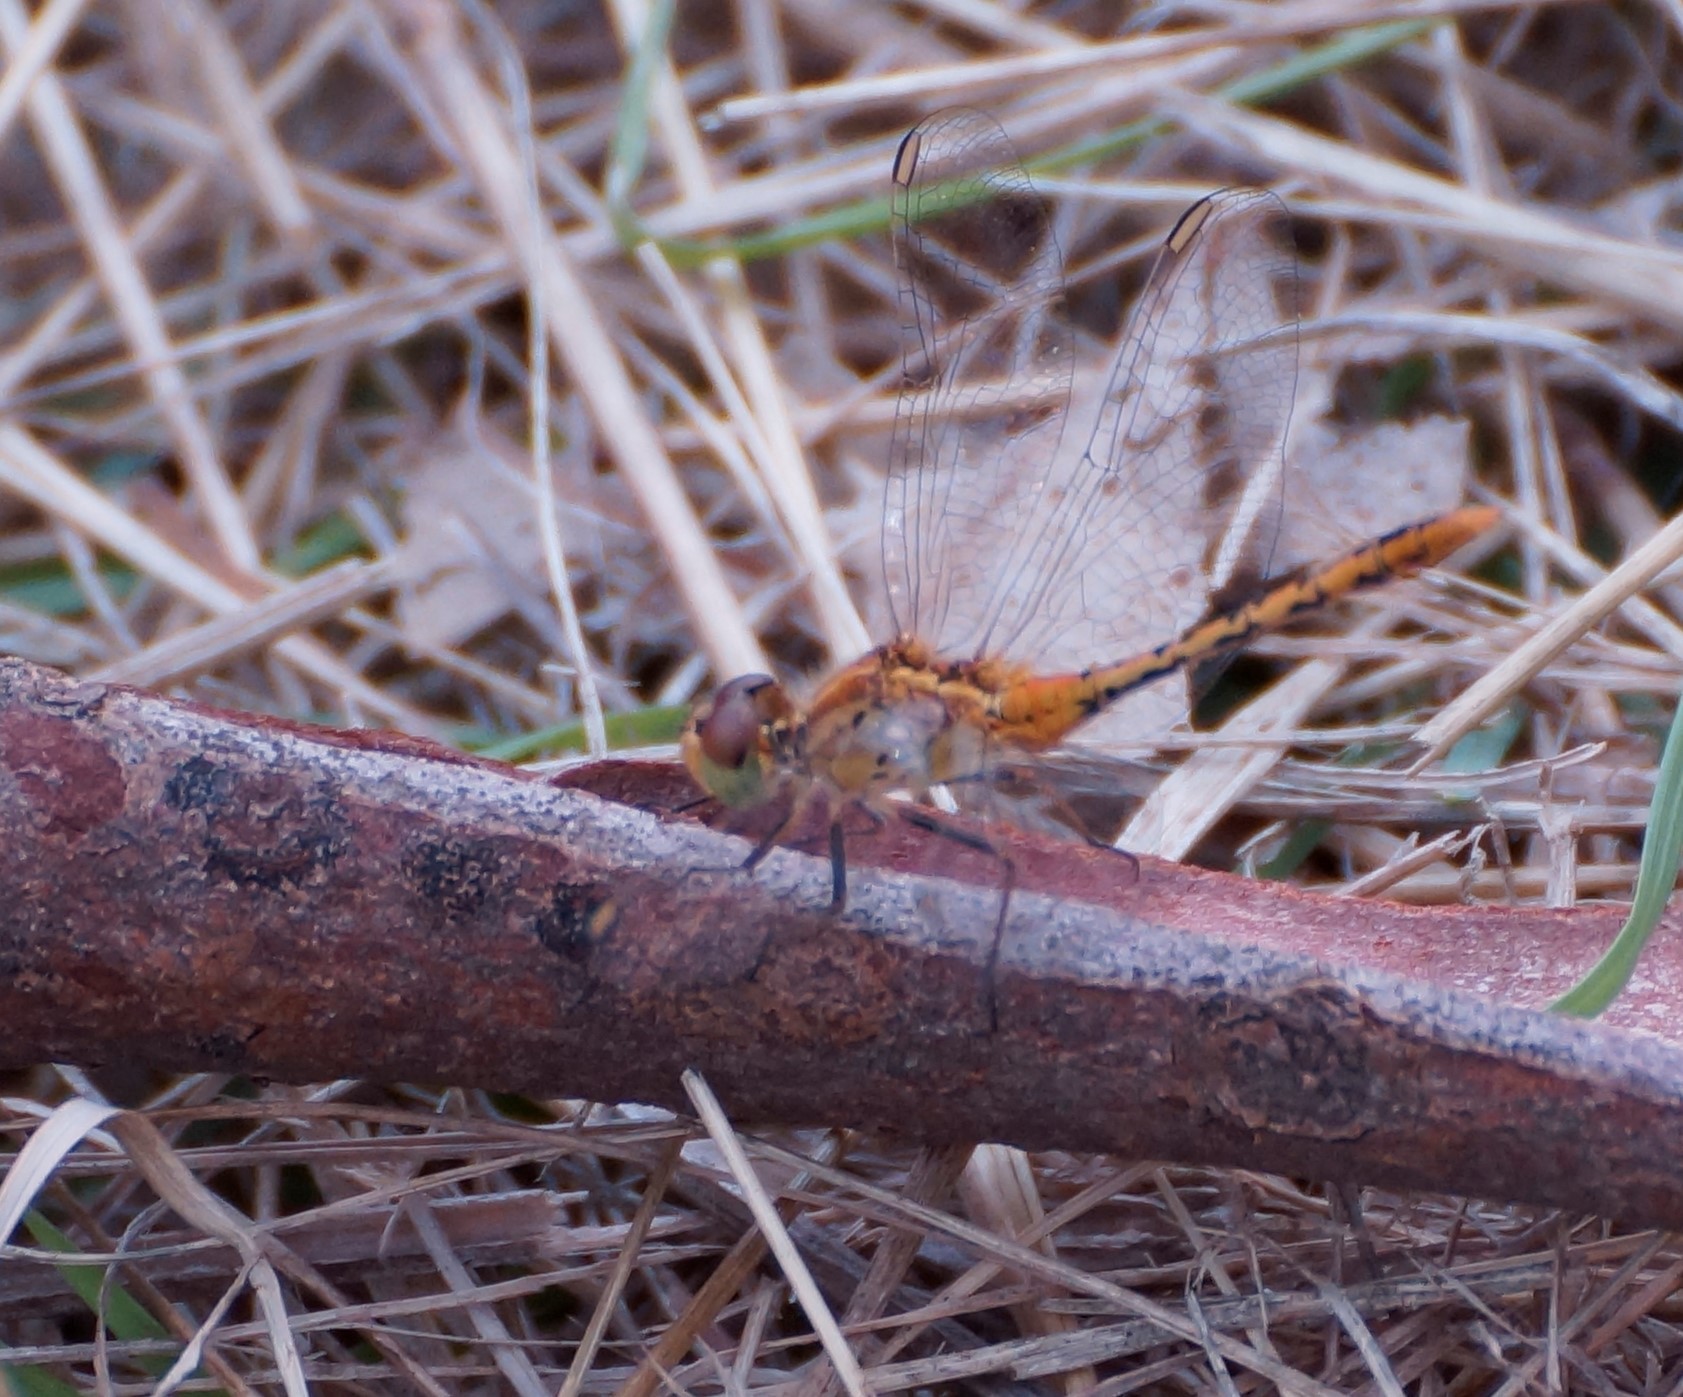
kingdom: Animalia
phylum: Arthropoda
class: Insecta
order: Odonata
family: Libellulidae
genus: Diplacodes
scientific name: Diplacodes bipunctata
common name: Red percher dragonfly
